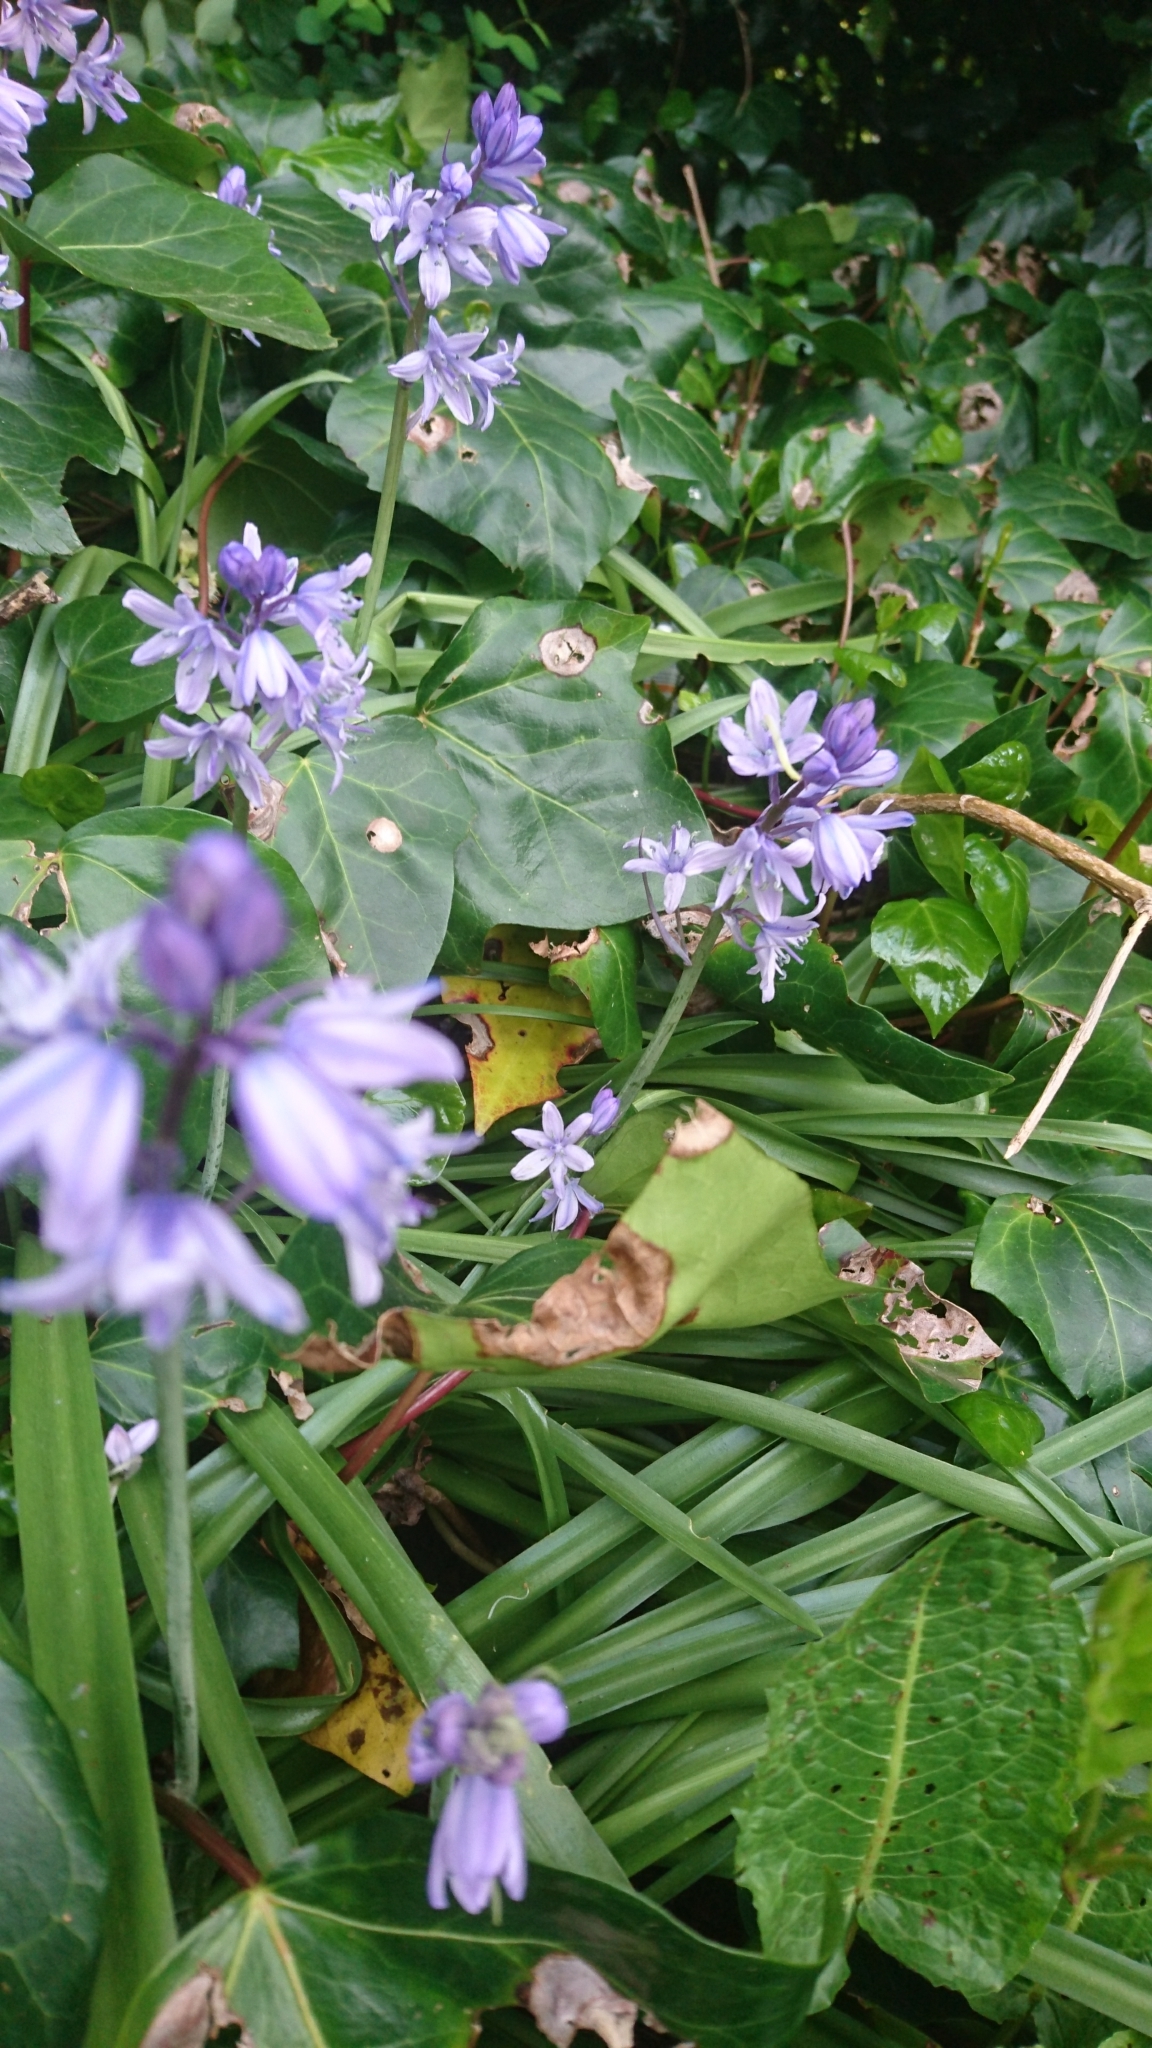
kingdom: Plantae
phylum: Tracheophyta
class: Liliopsida
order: Asparagales
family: Asparagaceae
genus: Hyacinthoides
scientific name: Hyacinthoides hispanica
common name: Spanish bluebell
